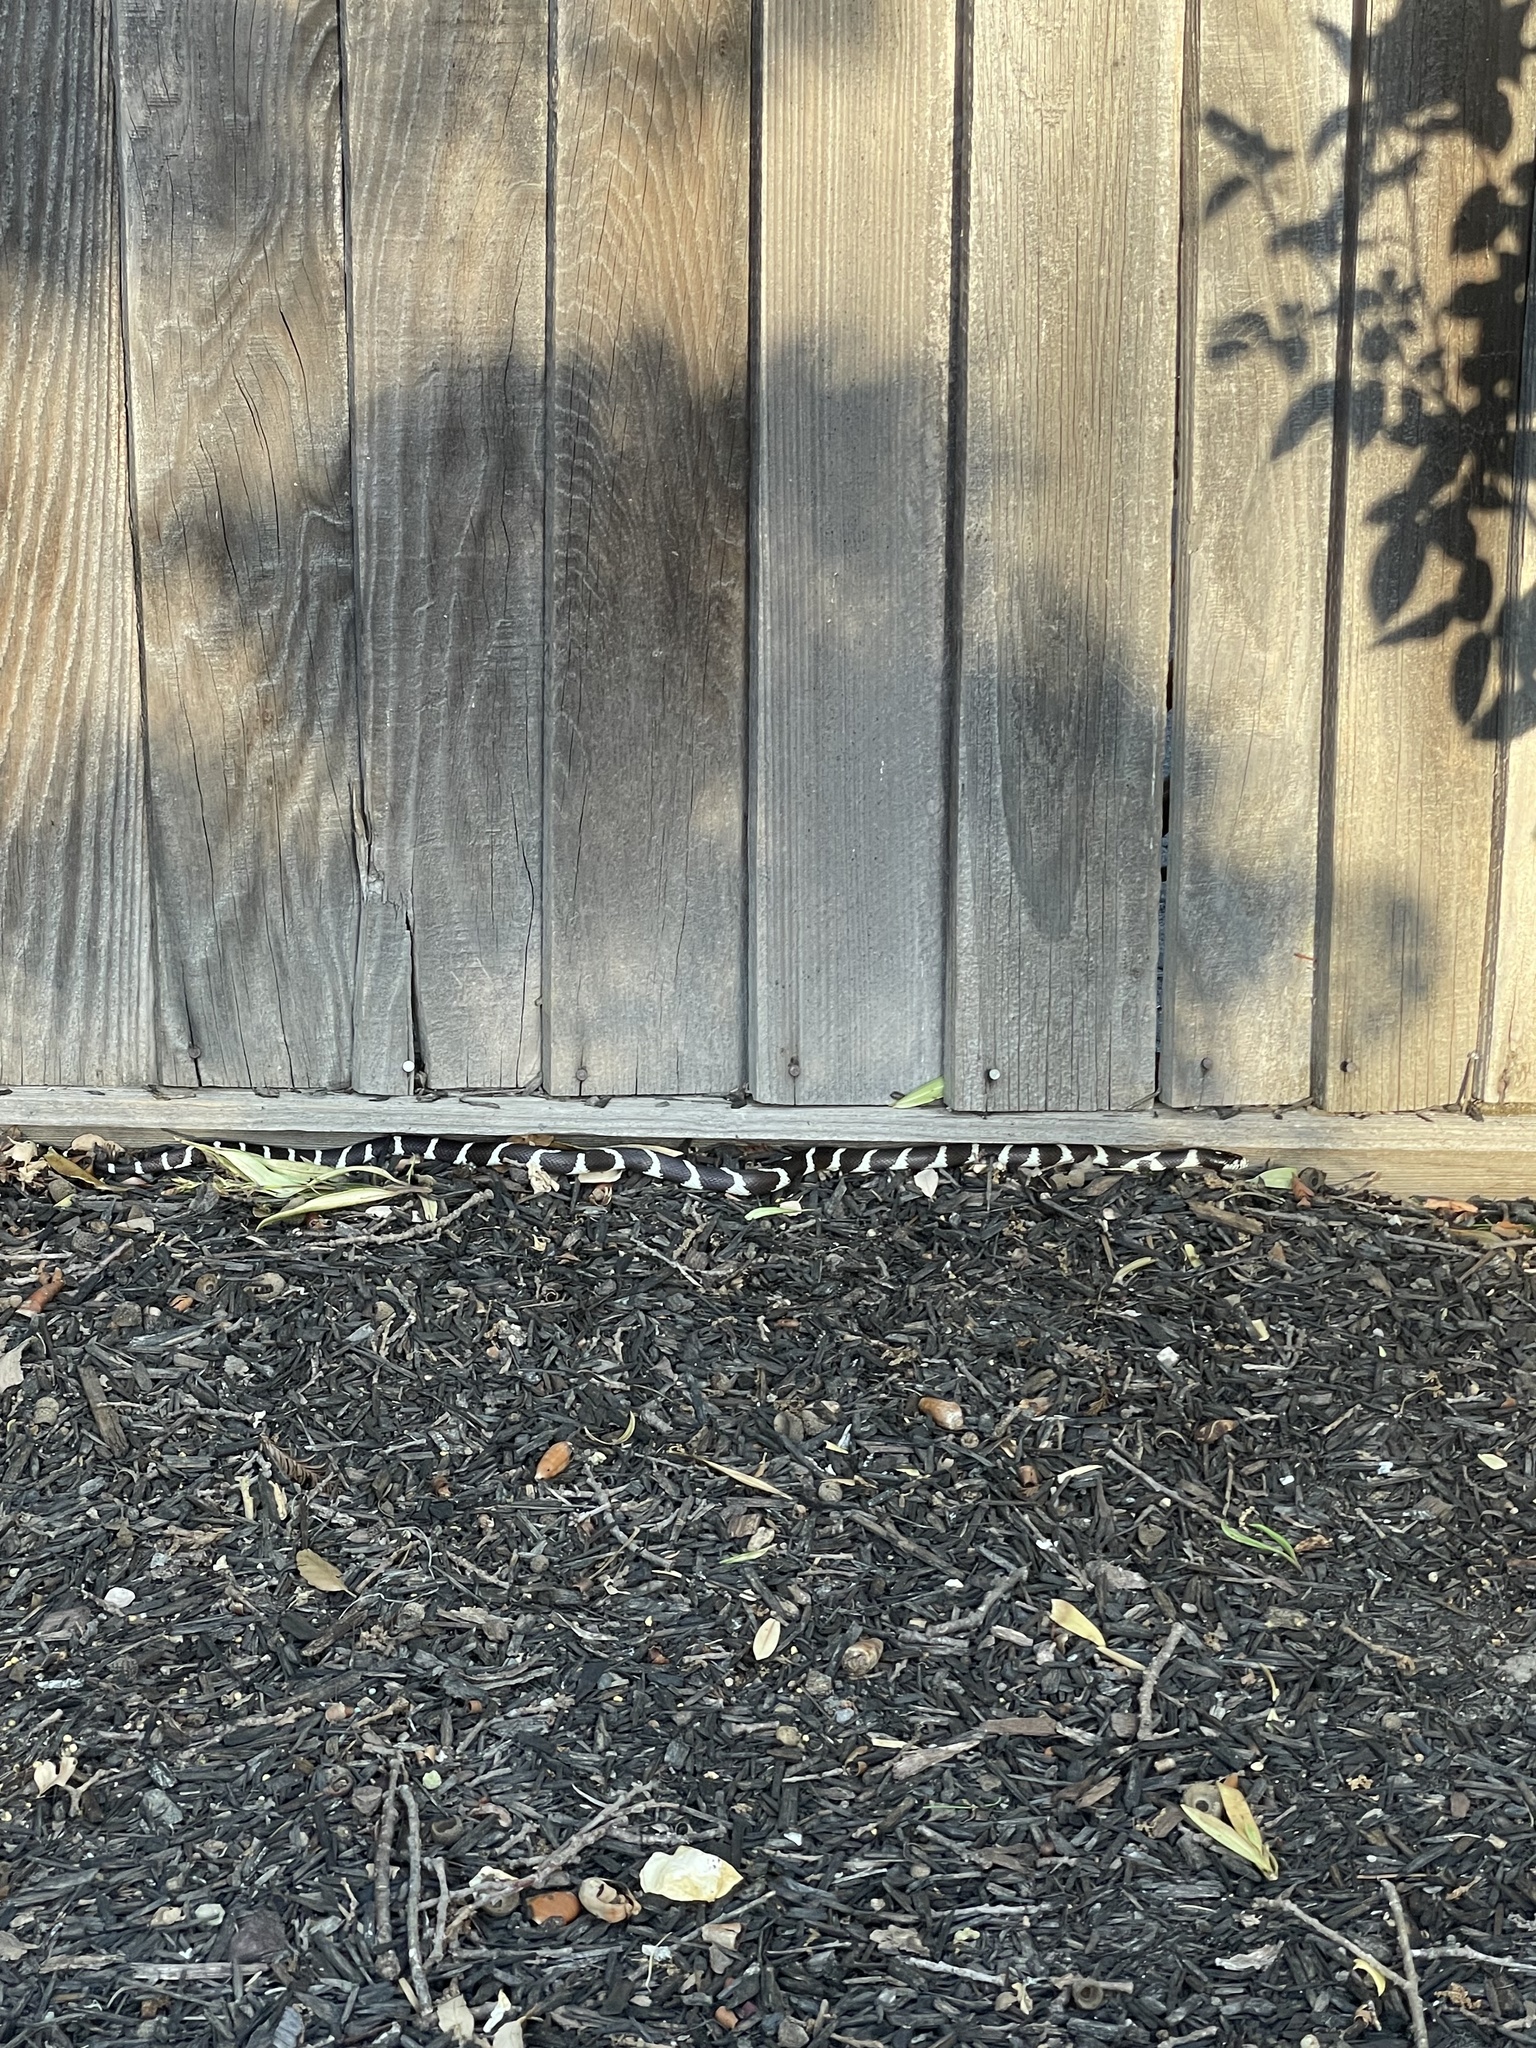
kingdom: Animalia
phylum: Chordata
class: Squamata
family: Colubridae
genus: Lampropeltis
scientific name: Lampropeltis californiae
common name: California kingsnake
